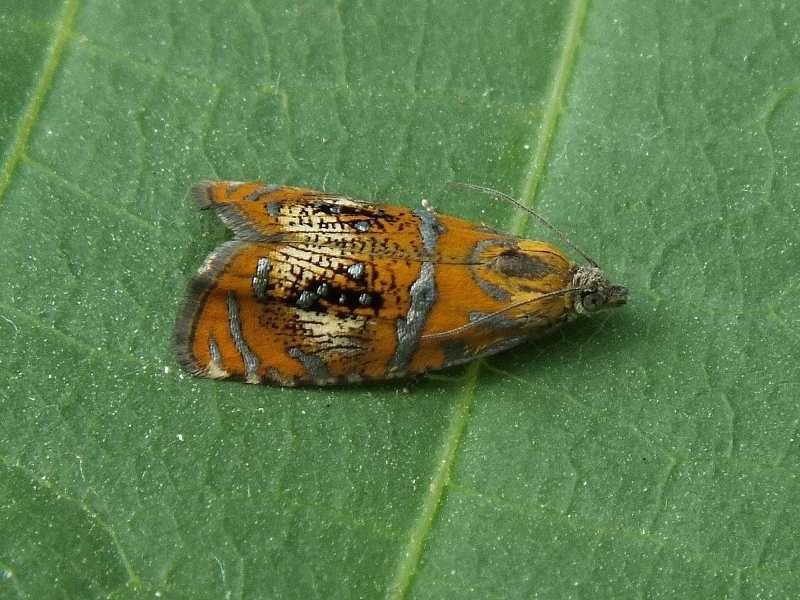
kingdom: Animalia
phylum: Arthropoda
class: Insecta
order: Lepidoptera
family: Tortricidae
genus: Olethreutes
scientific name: Olethreutes arcuella
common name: Arched marble
